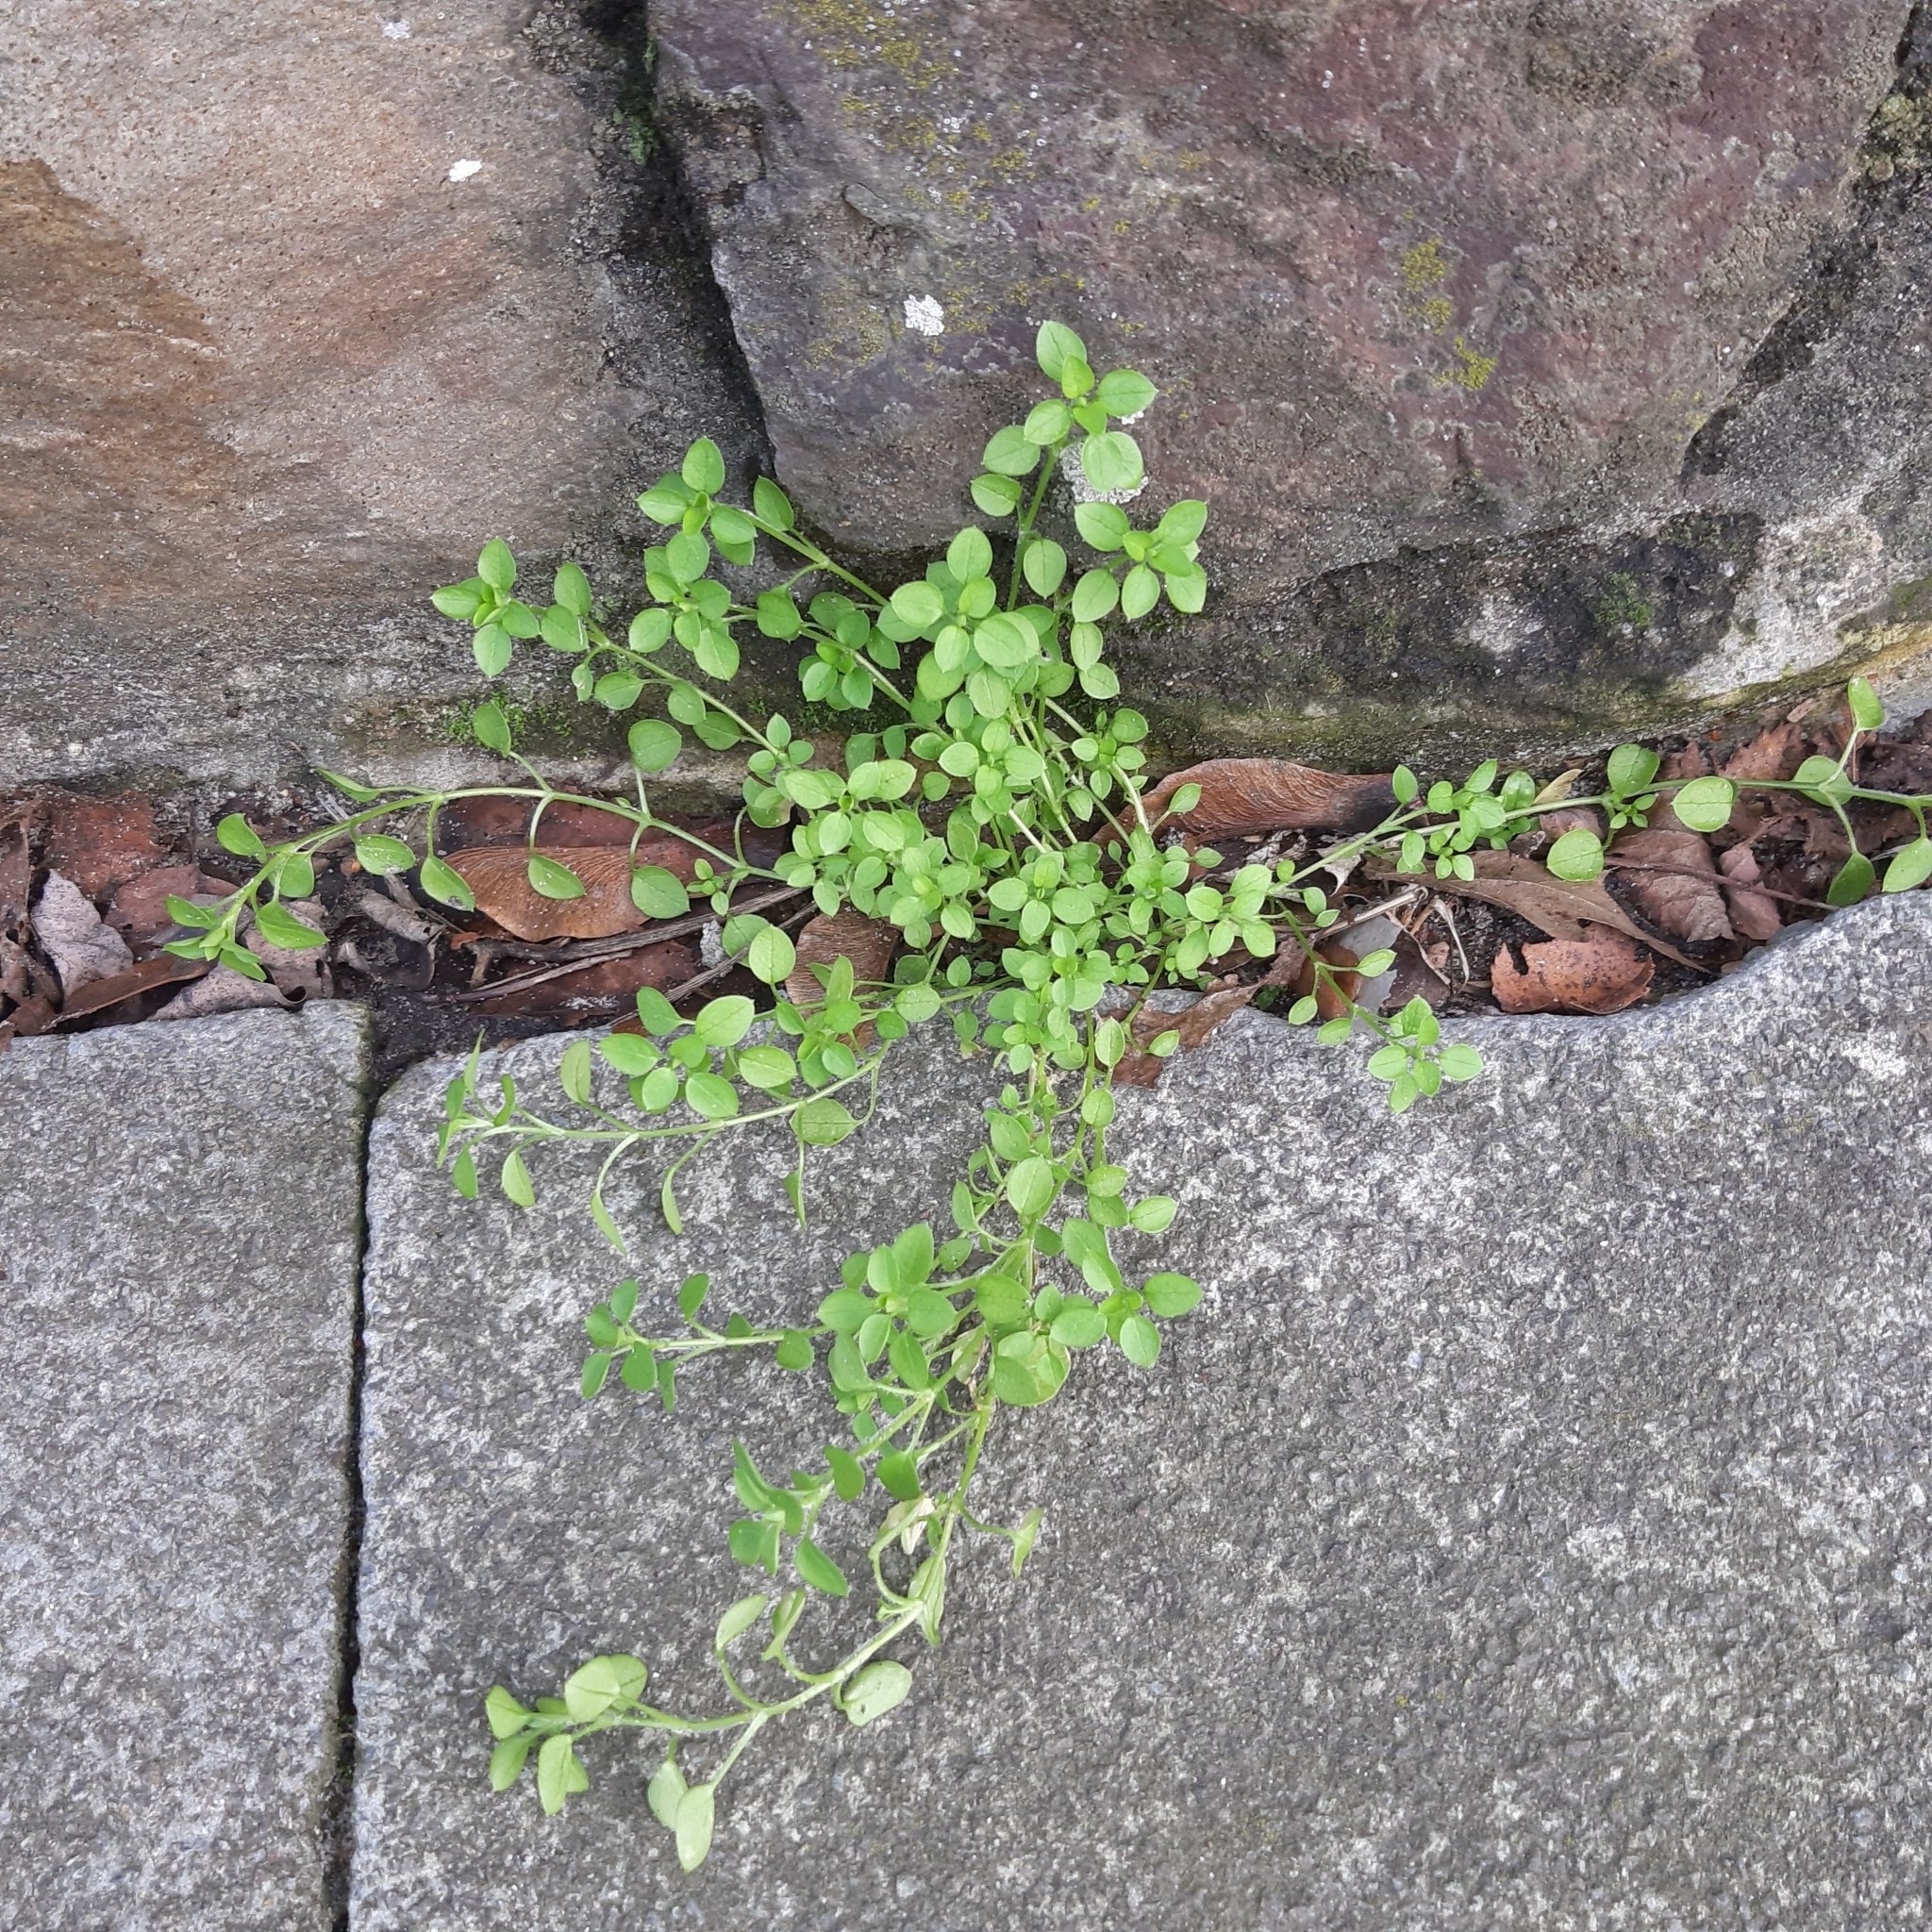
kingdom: Plantae
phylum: Tracheophyta
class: Magnoliopsida
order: Caryophyllales
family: Caryophyllaceae
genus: Stellaria
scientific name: Stellaria media
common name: Common chickweed
